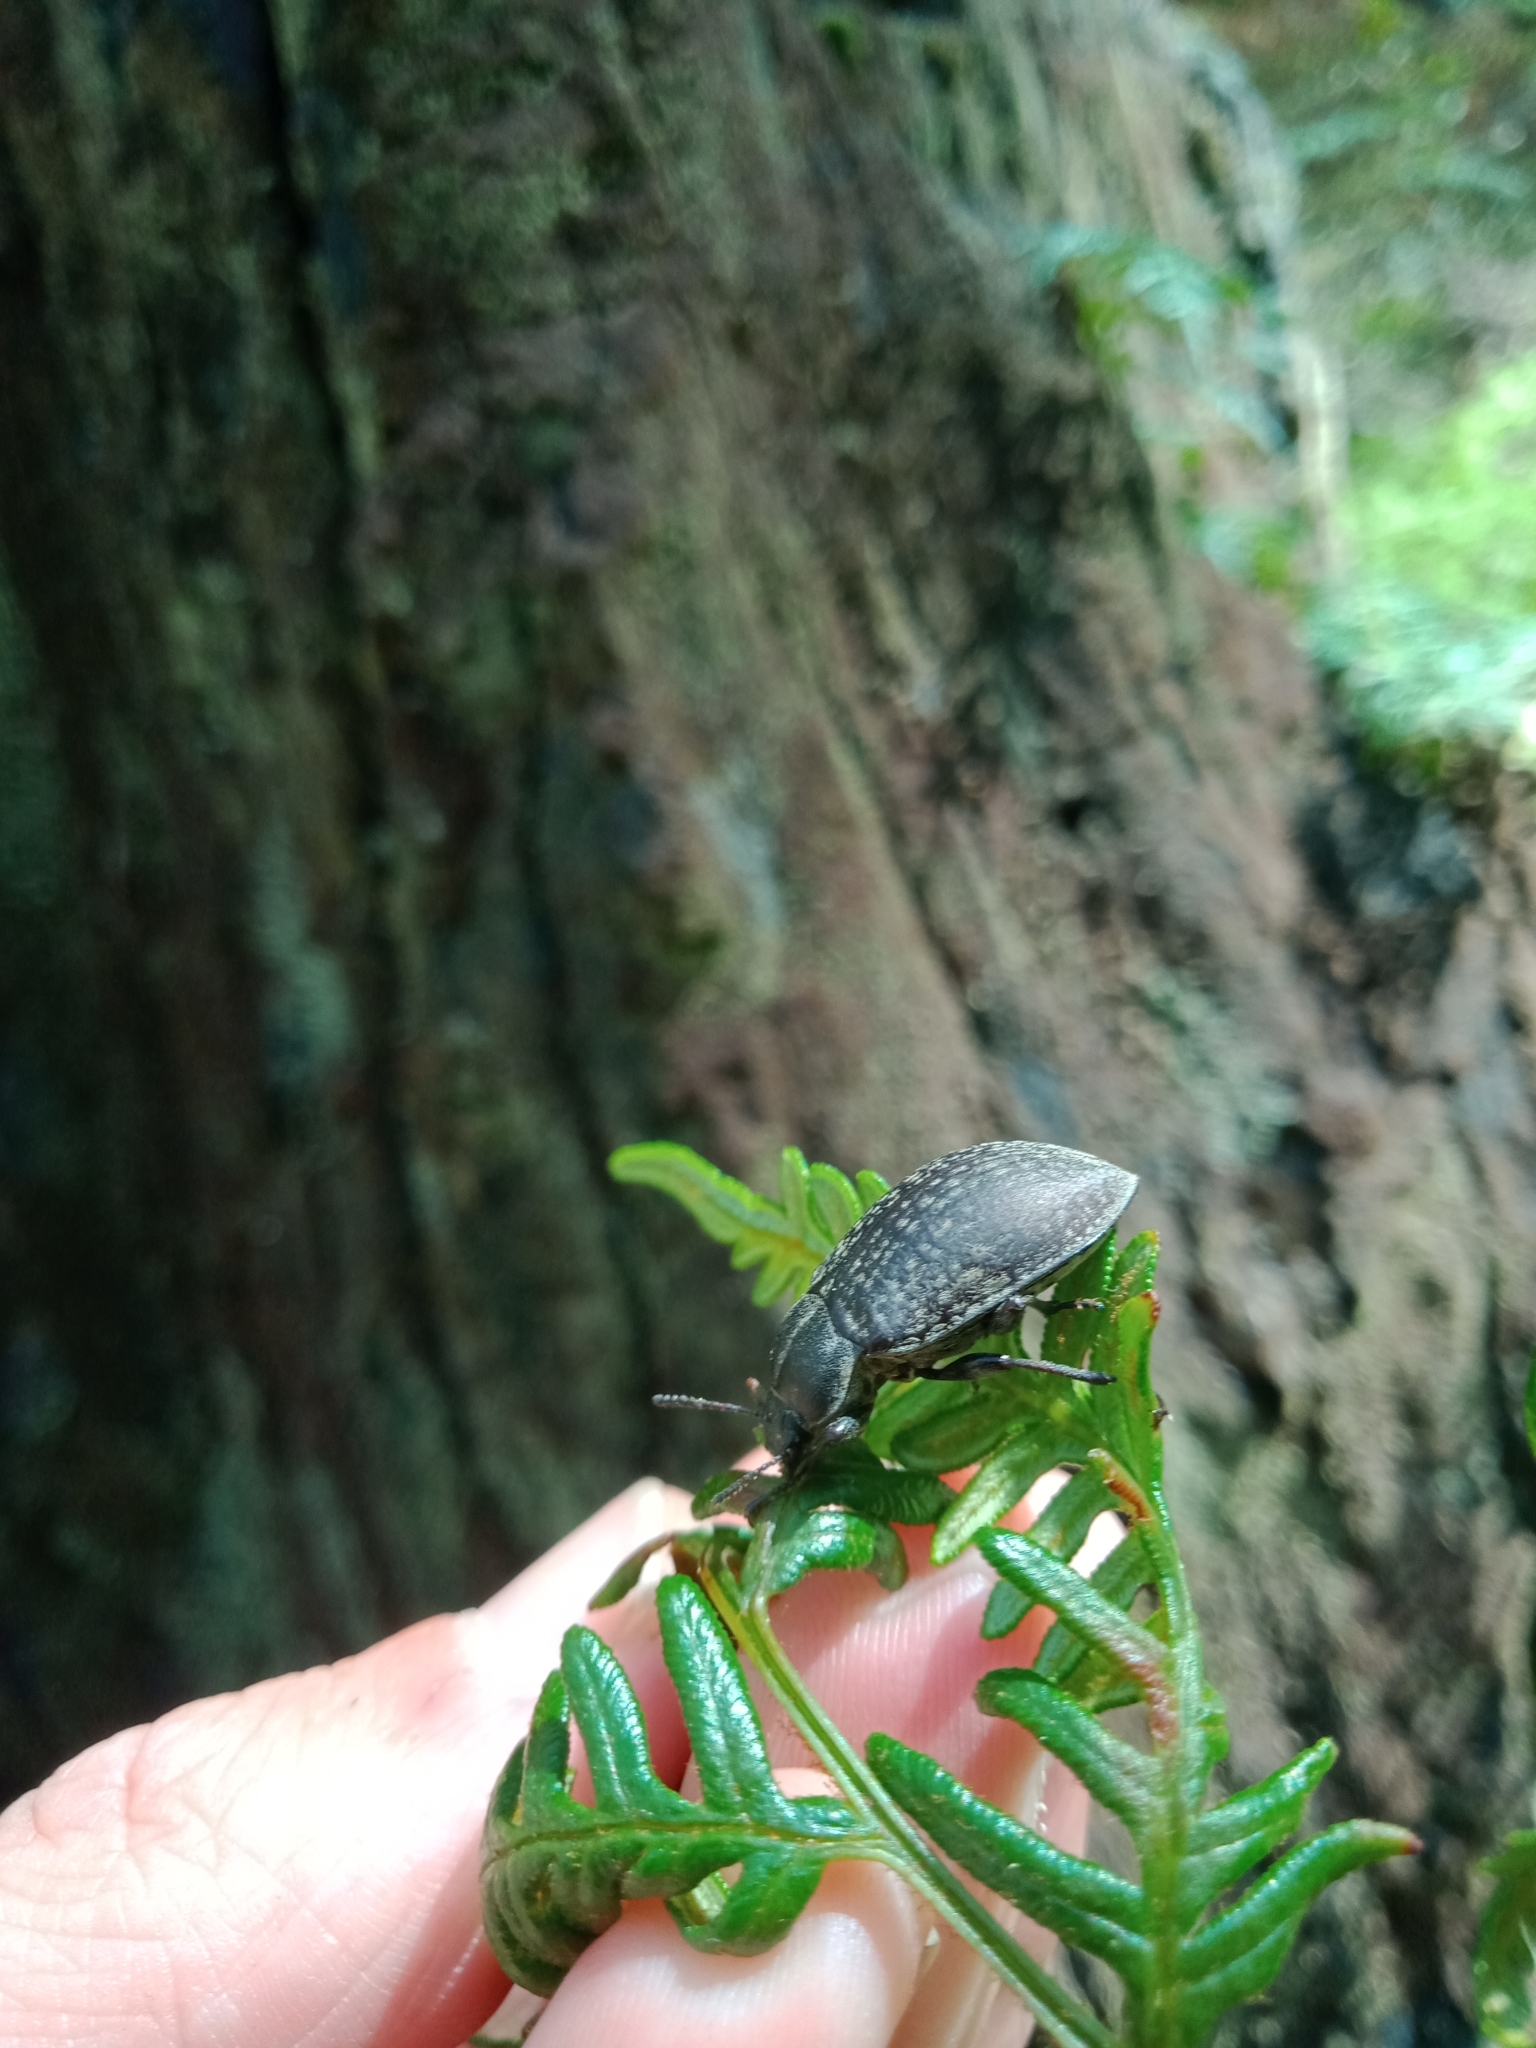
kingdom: Animalia
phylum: Arthropoda
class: Insecta
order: Coleoptera
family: Tenebrionidae
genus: Pachycoelia
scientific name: Pachycoelia
